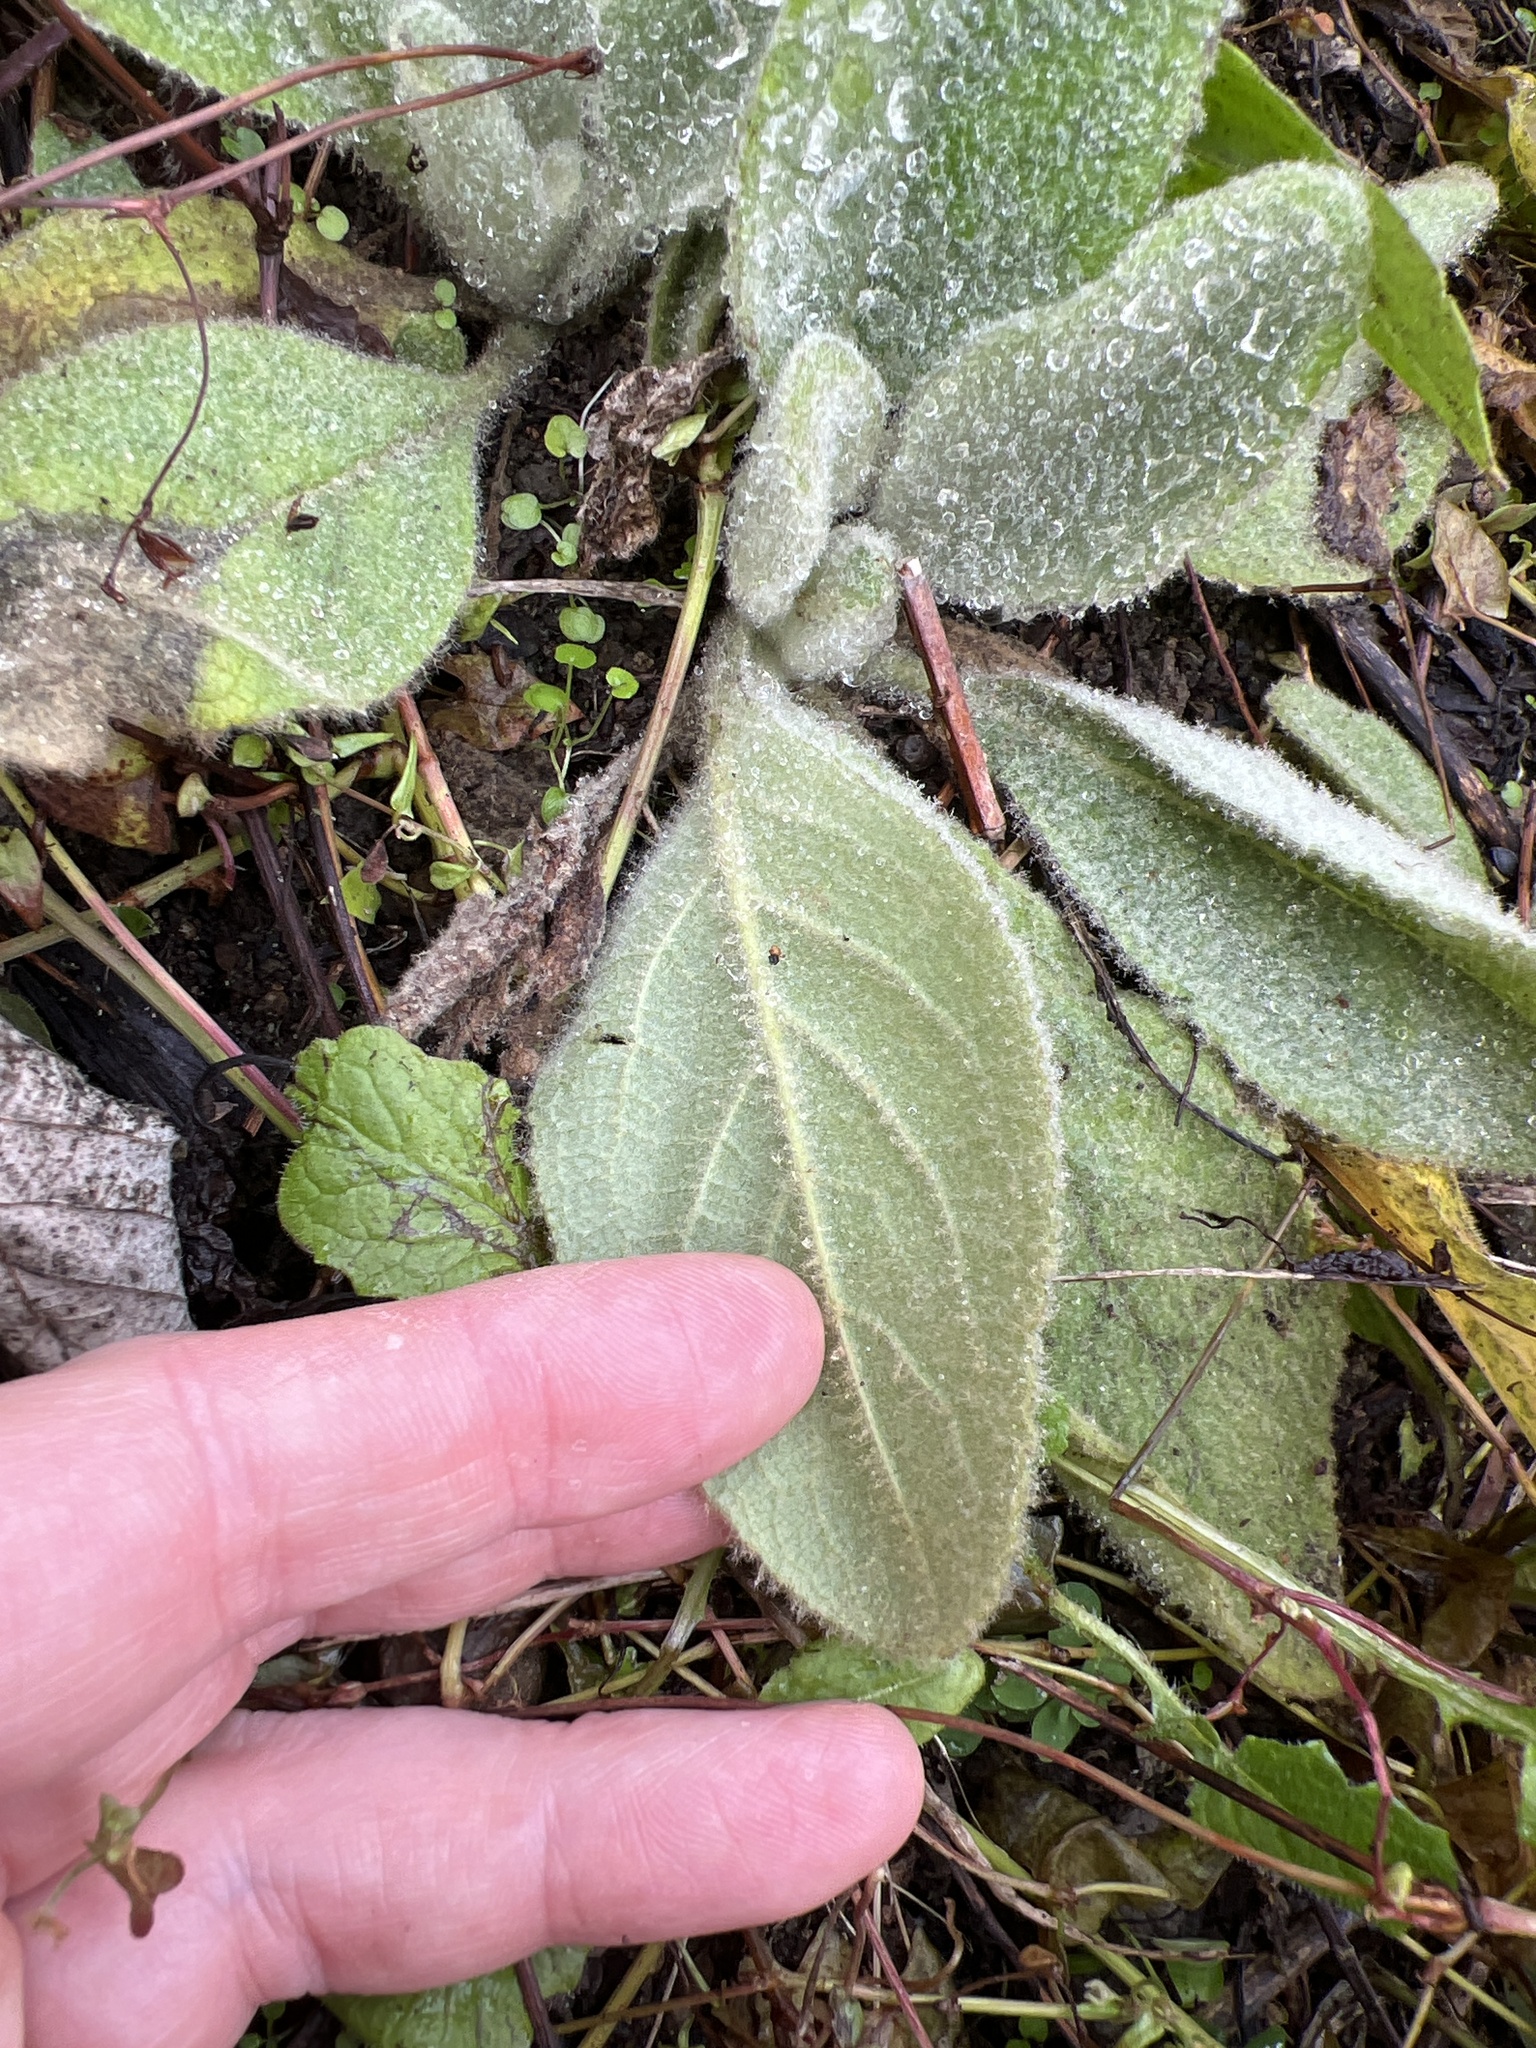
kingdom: Plantae
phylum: Tracheophyta
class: Magnoliopsida
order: Lamiales
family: Scrophulariaceae
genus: Verbascum
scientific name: Verbascum thapsus
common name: Common mullein
